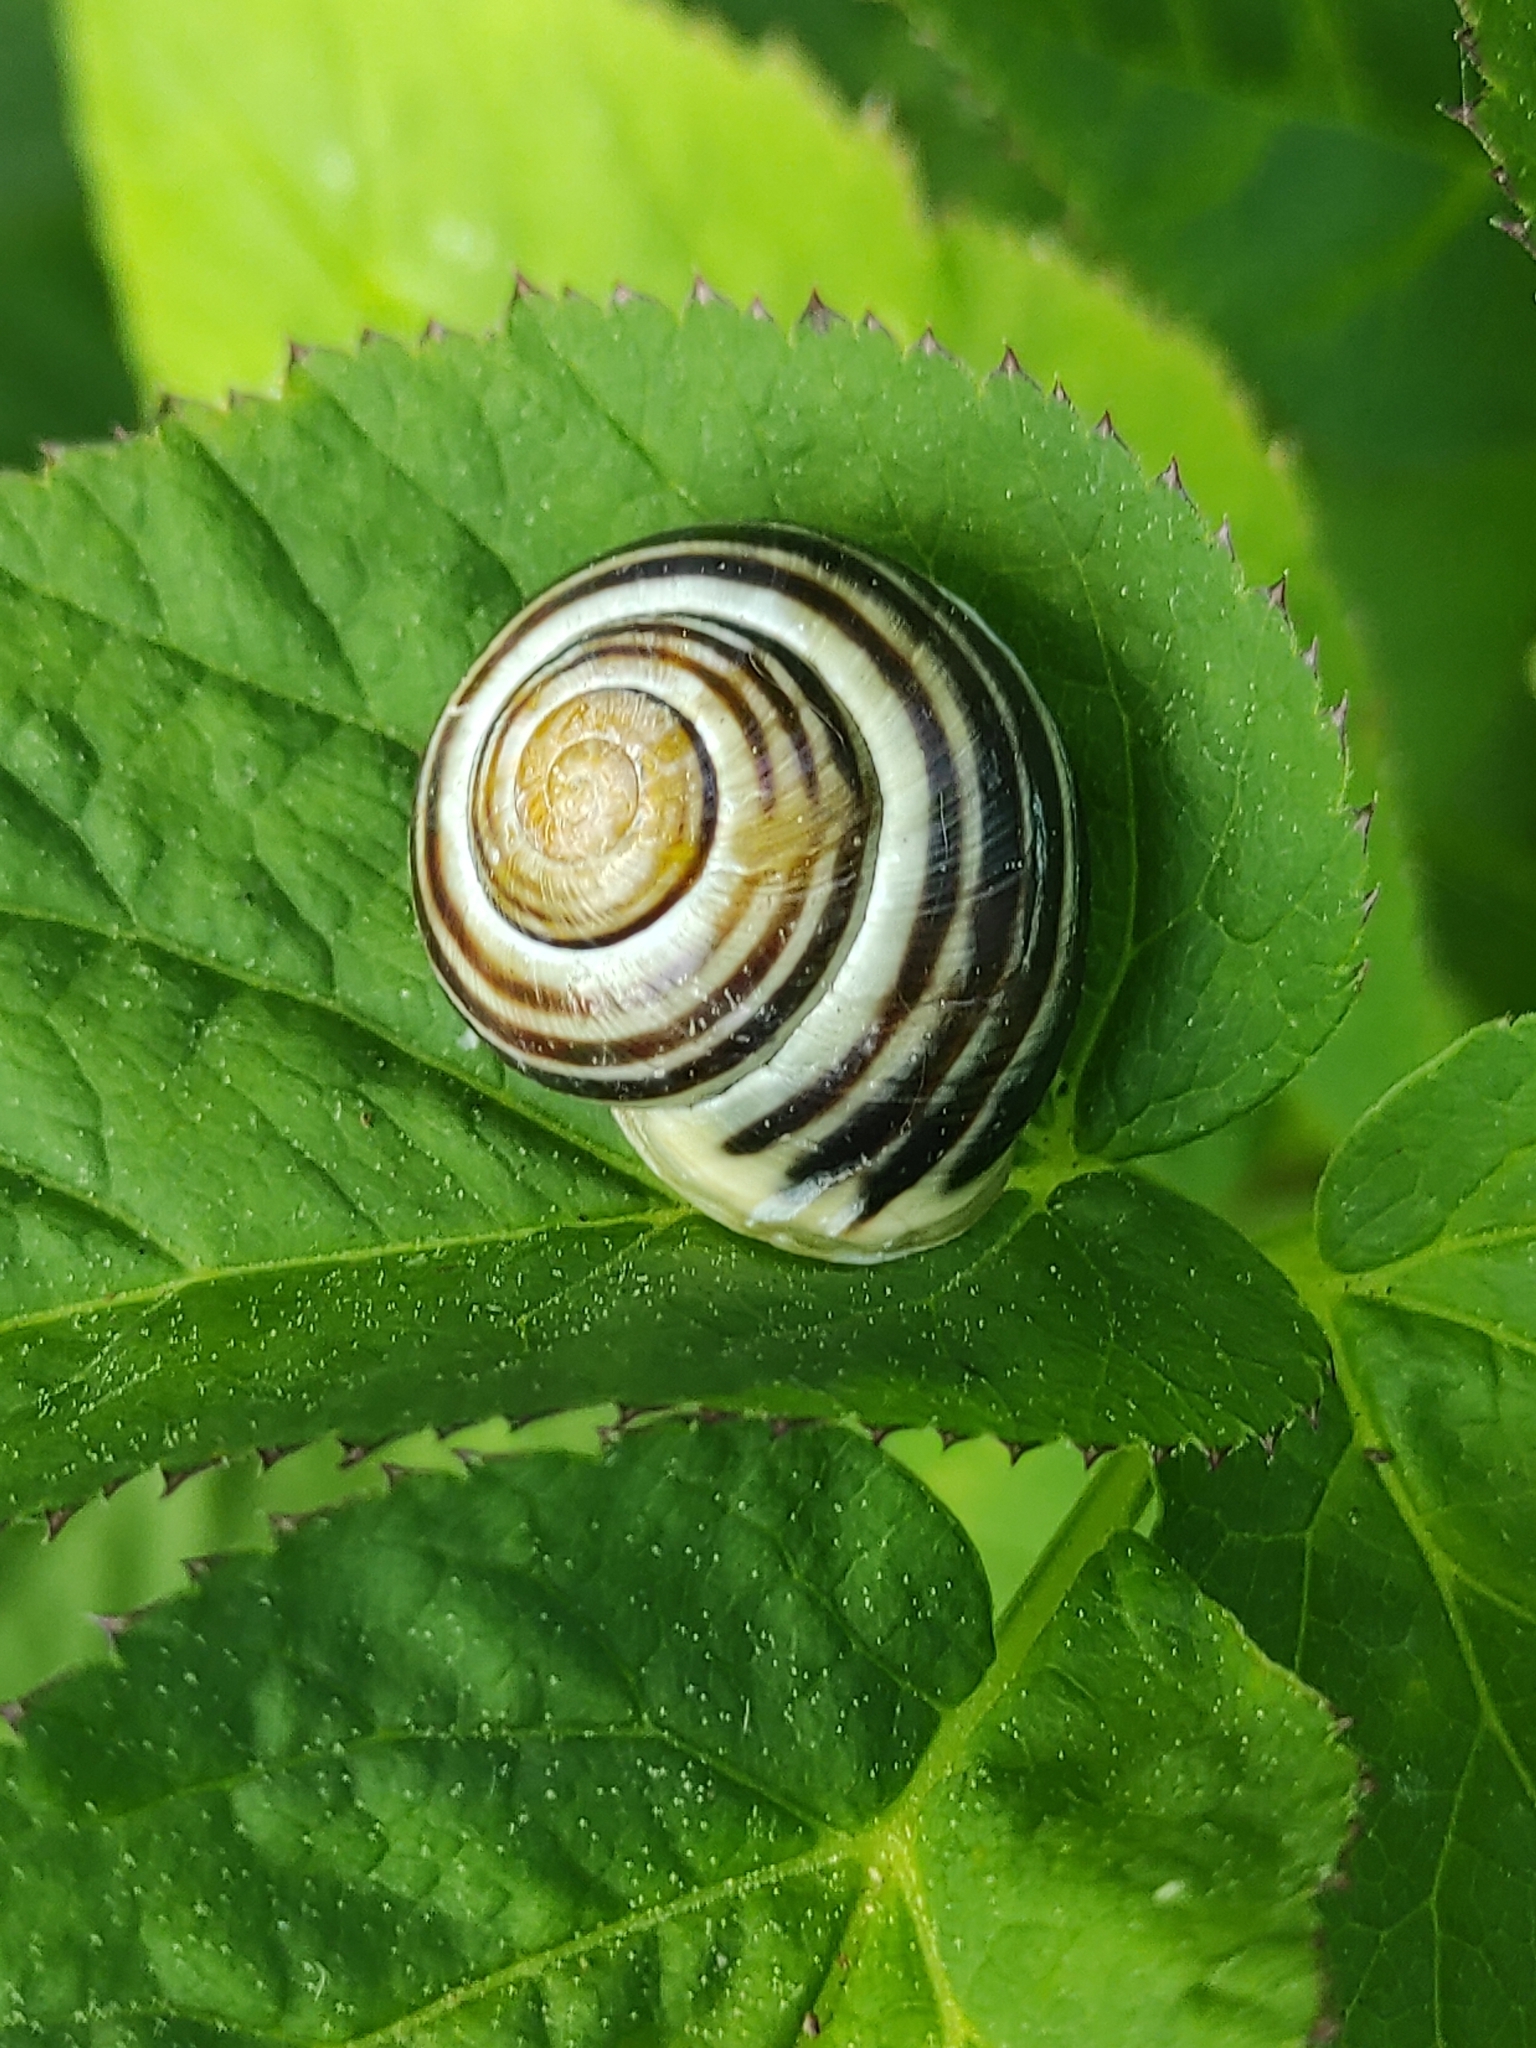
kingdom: Animalia
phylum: Mollusca
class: Gastropoda
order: Stylommatophora
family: Helicidae
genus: Cepaea
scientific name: Cepaea hortensis
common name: White-lip gardensnail
